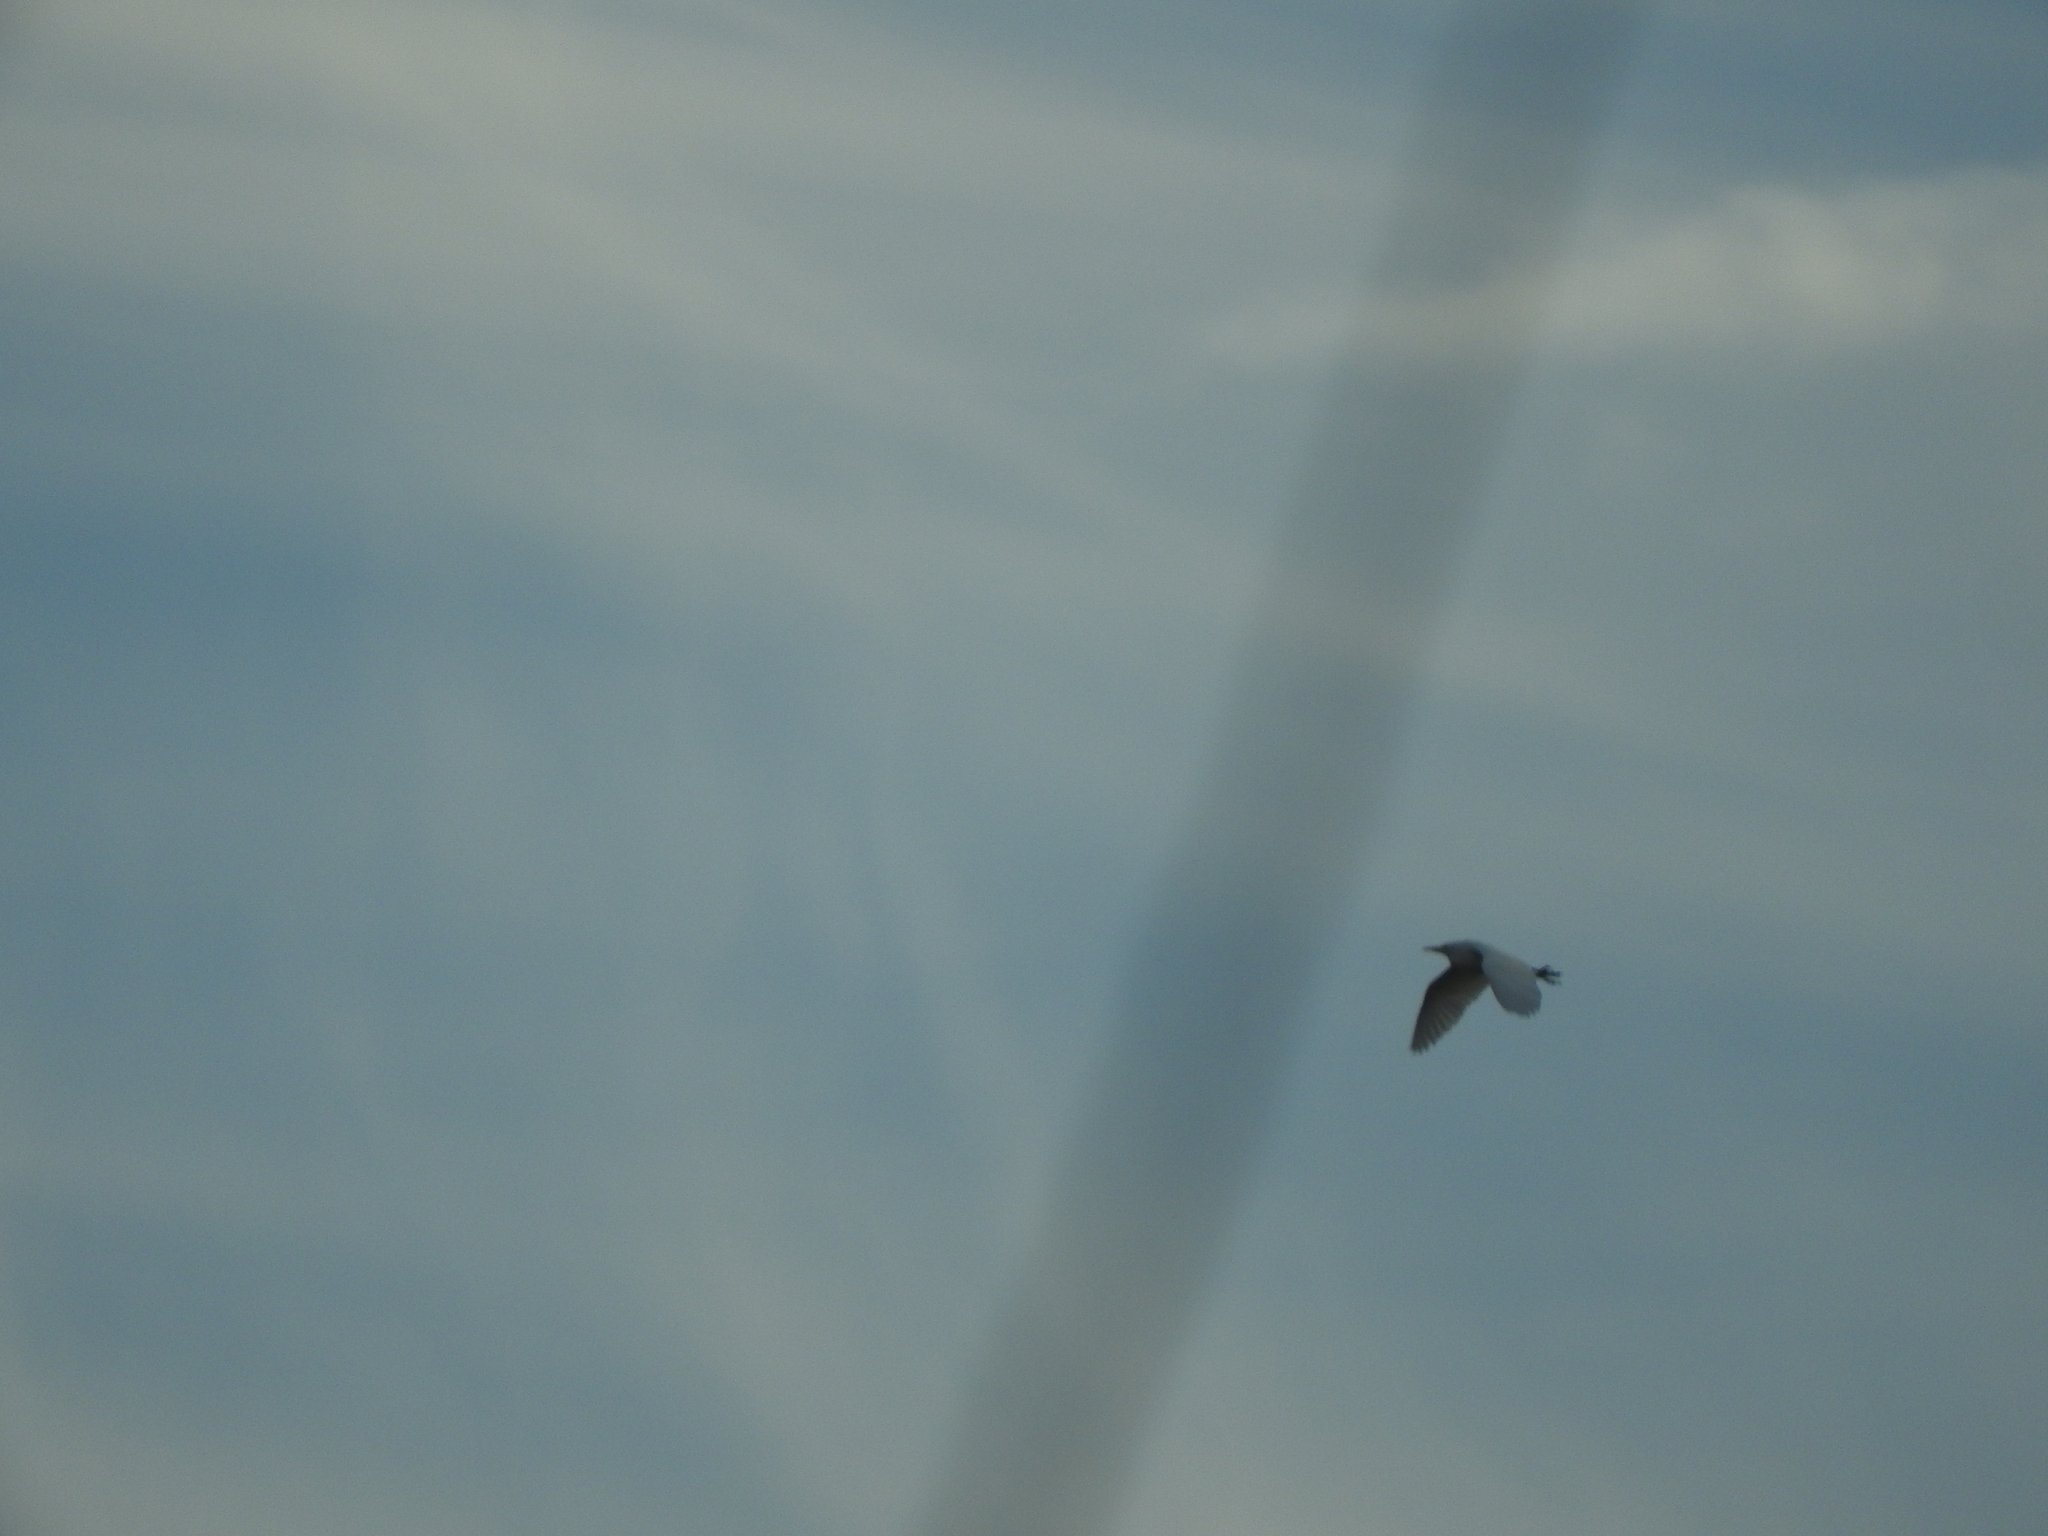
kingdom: Animalia
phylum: Chordata
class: Aves
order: Pelecaniformes
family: Ardeidae
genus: Bubulcus
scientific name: Bubulcus ibis
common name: Cattle egret
